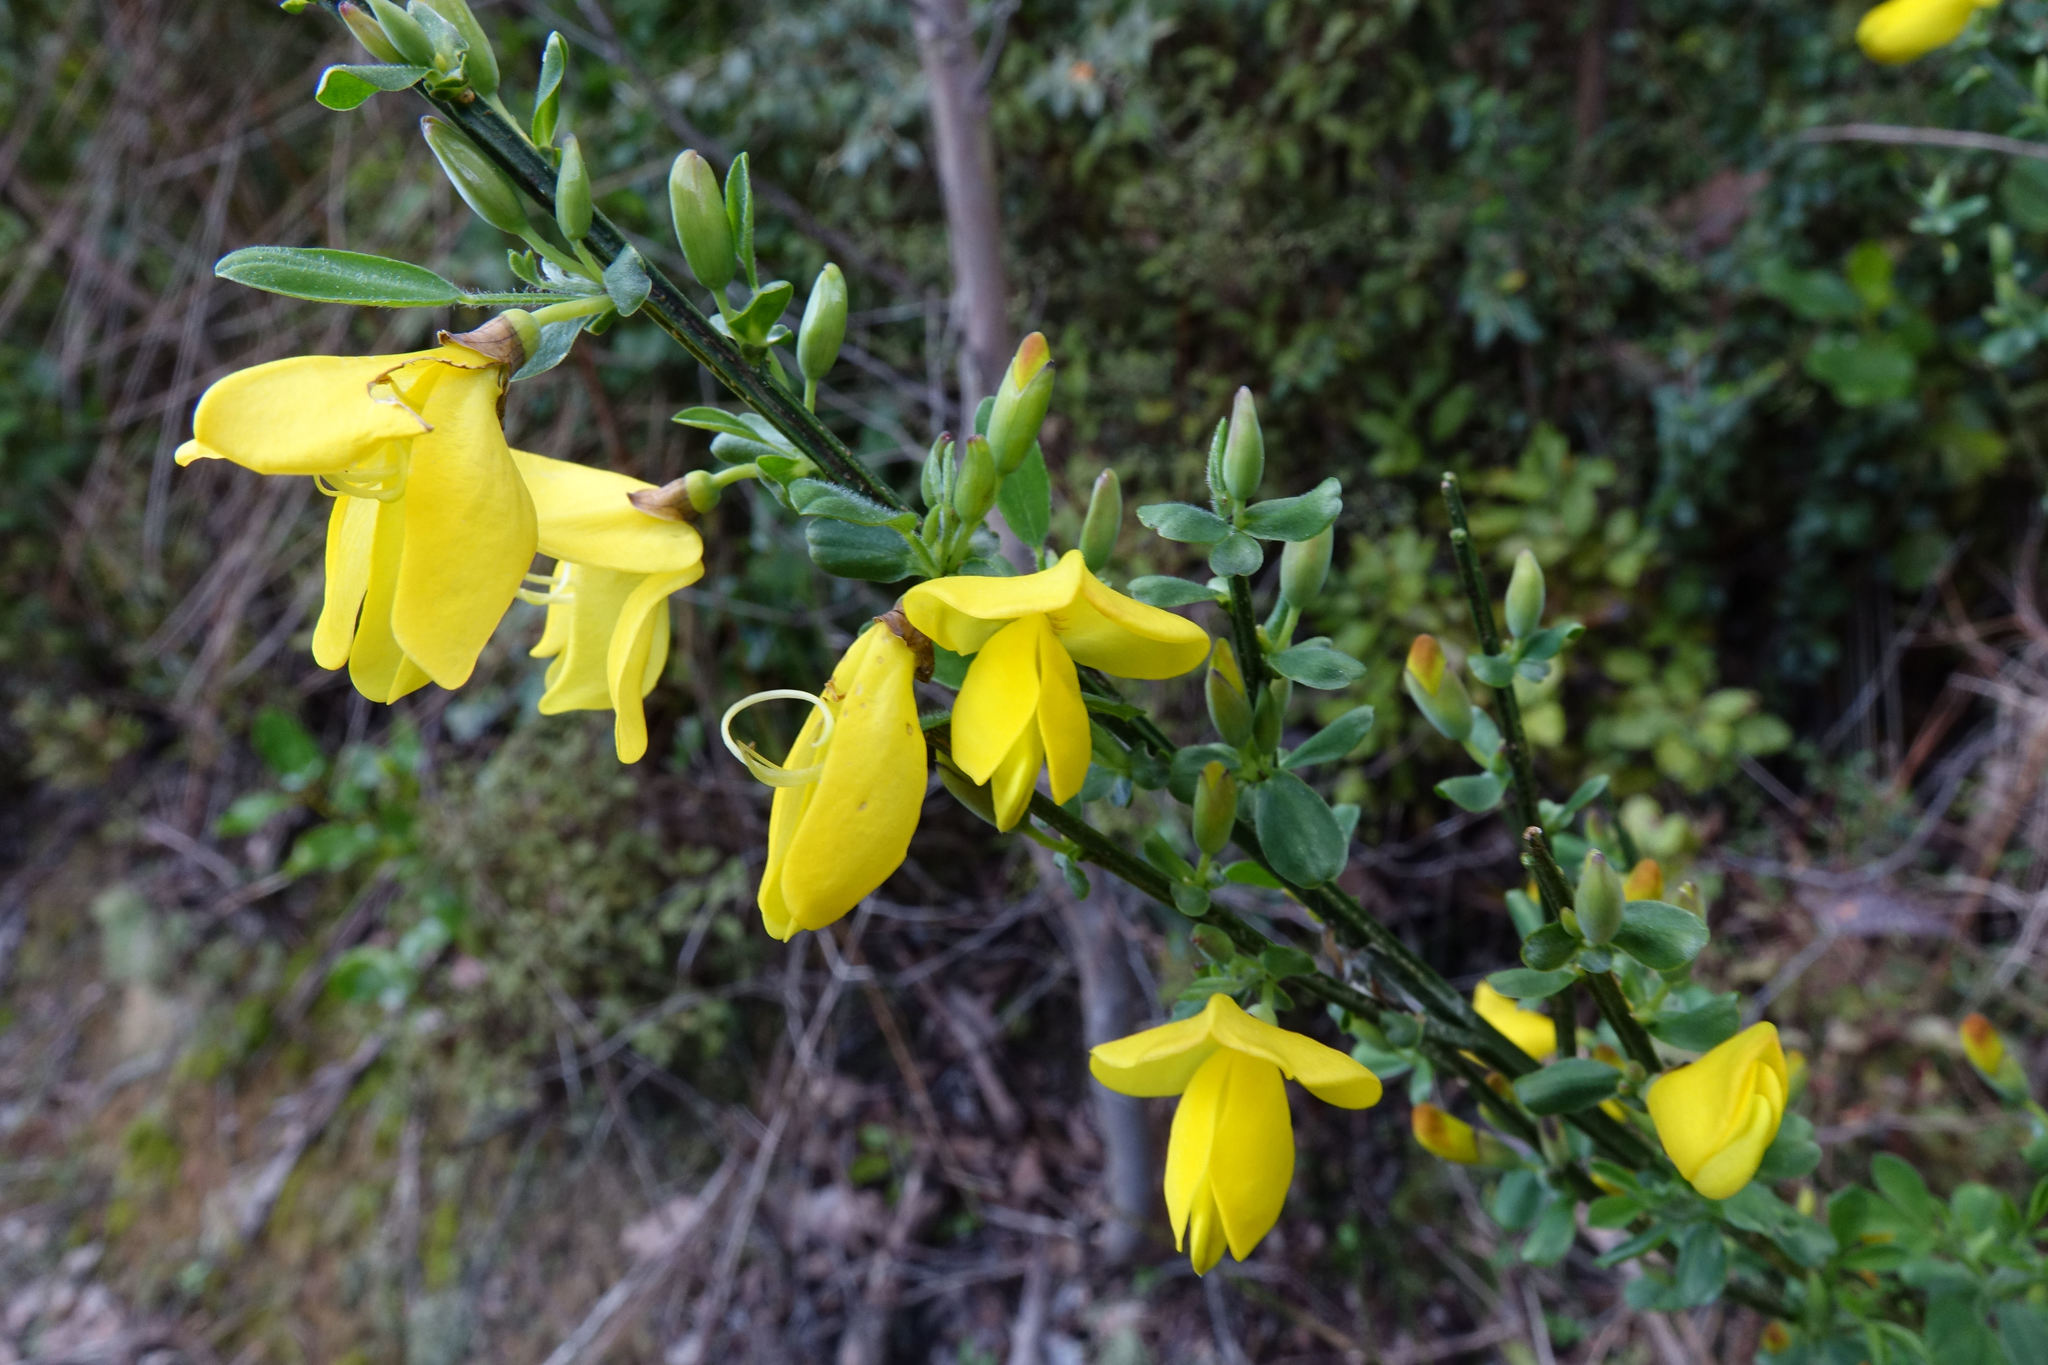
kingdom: Plantae
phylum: Tracheophyta
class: Magnoliopsida
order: Fabales
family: Fabaceae
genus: Cytisus
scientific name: Cytisus scoparius
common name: Scotch broom
